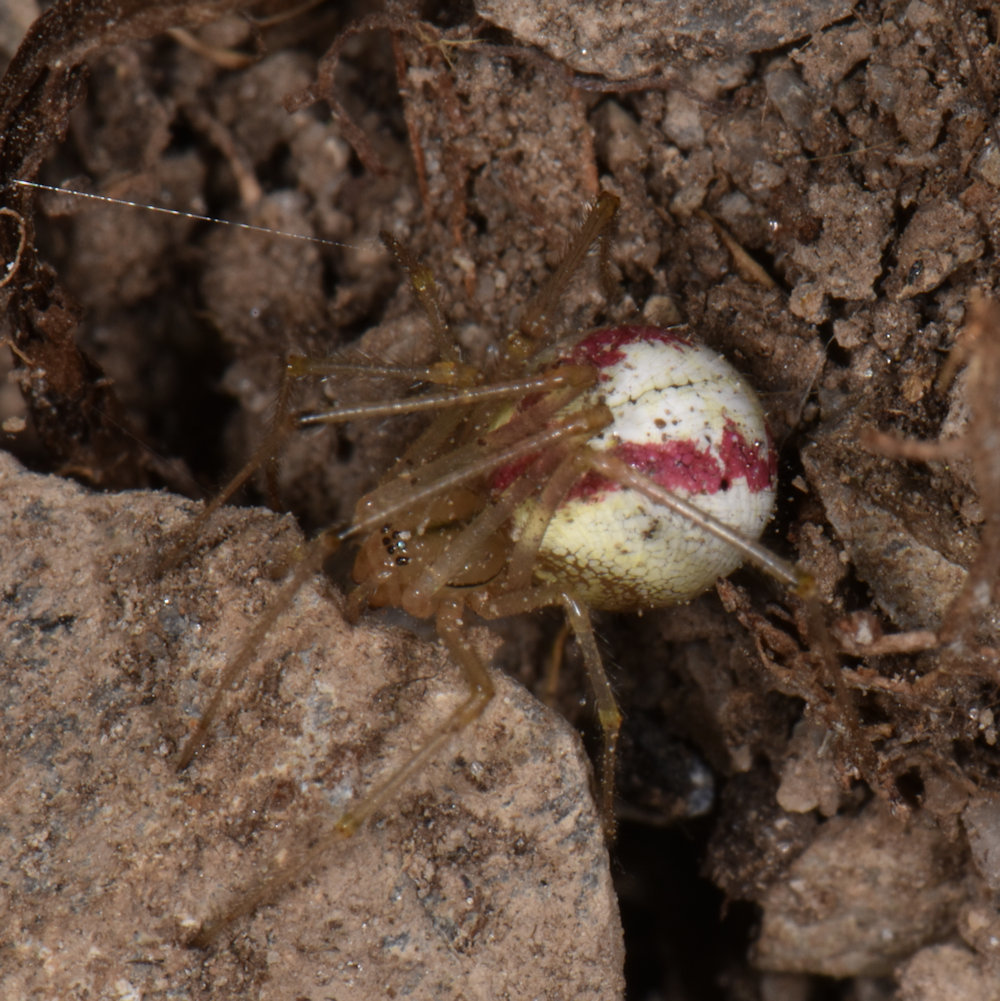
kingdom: Animalia
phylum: Arthropoda
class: Arachnida
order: Araneae
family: Theridiidae
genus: Enoplognatha
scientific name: Enoplognatha ovata
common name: Common candy-striped spider
